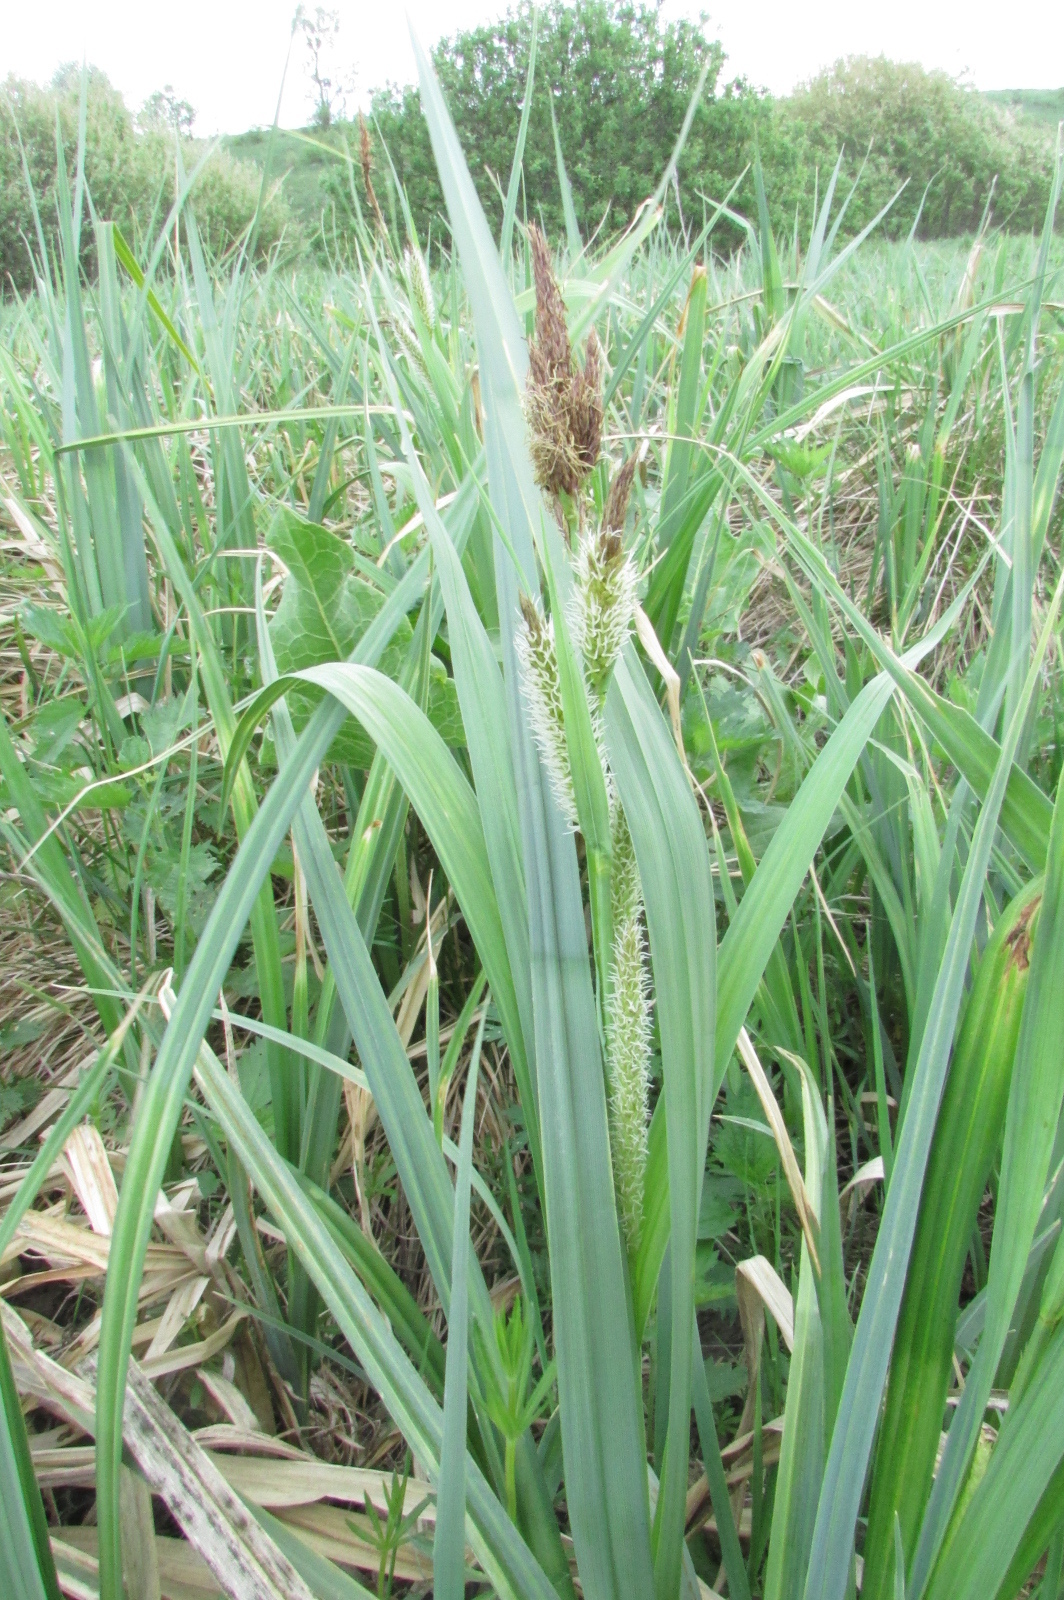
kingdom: Plantae
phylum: Tracheophyta
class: Liliopsida
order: Poales
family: Cyperaceae
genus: Carex
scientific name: Carex riparia
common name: Greater pond-sedge
